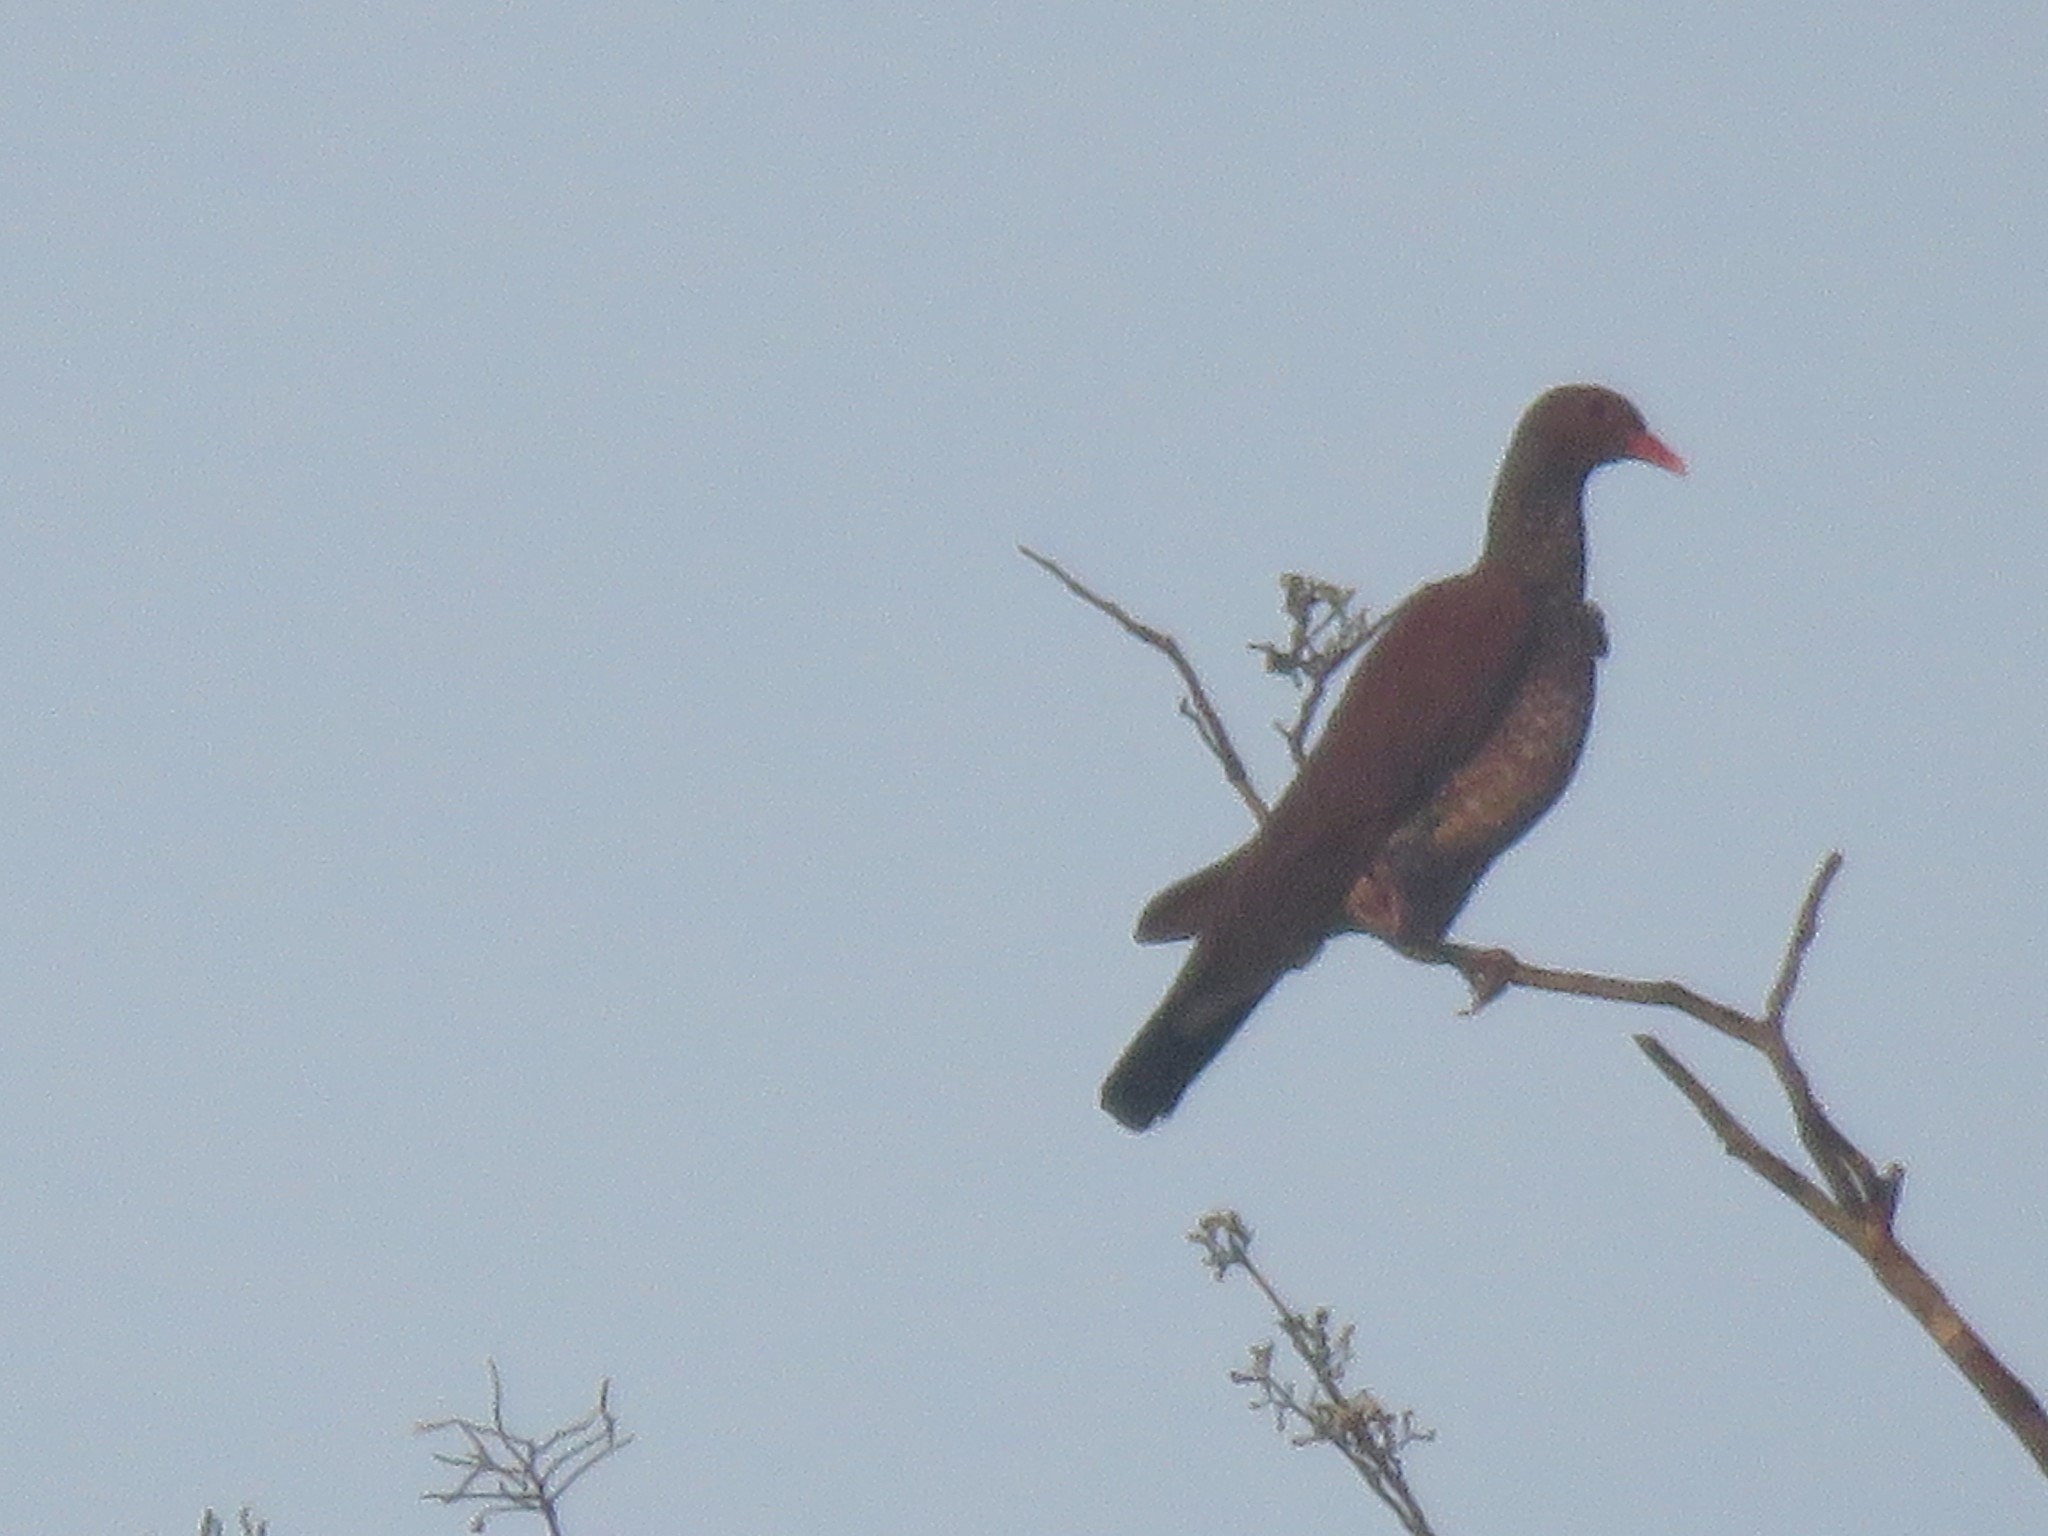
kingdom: Animalia
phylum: Chordata
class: Aves
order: Columbiformes
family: Columbidae
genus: Patagioenas
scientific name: Patagioenas speciosa
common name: Scaled pigeon
